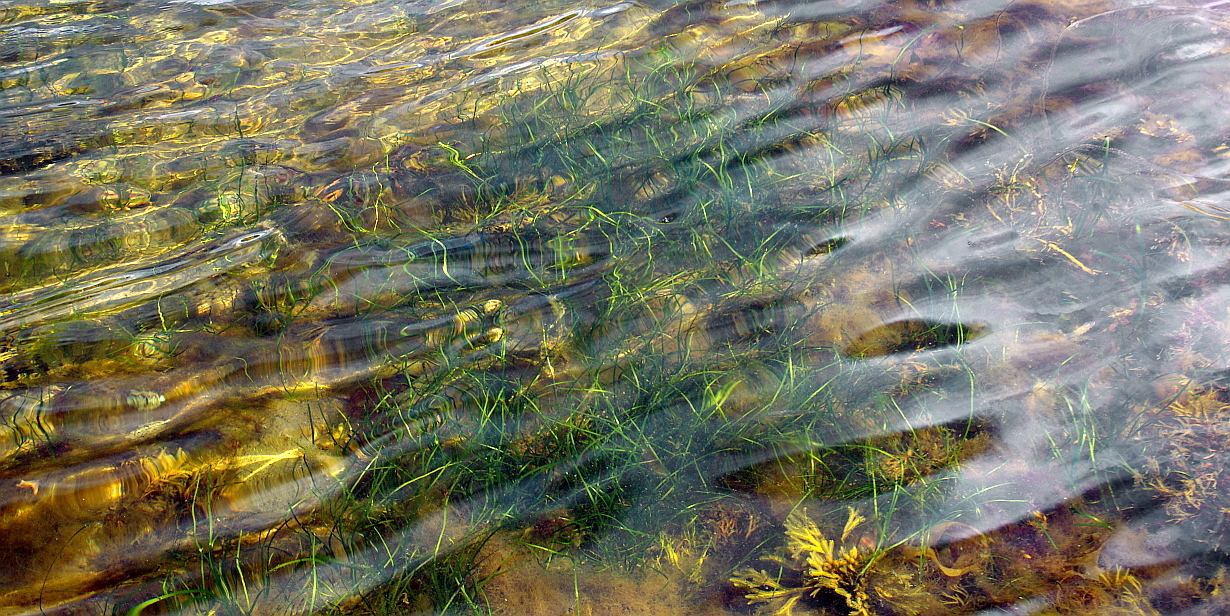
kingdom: Plantae
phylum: Tracheophyta
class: Liliopsida
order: Alismatales
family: Zosteraceae
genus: Zostera
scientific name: Zostera marina
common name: Eelgrass
